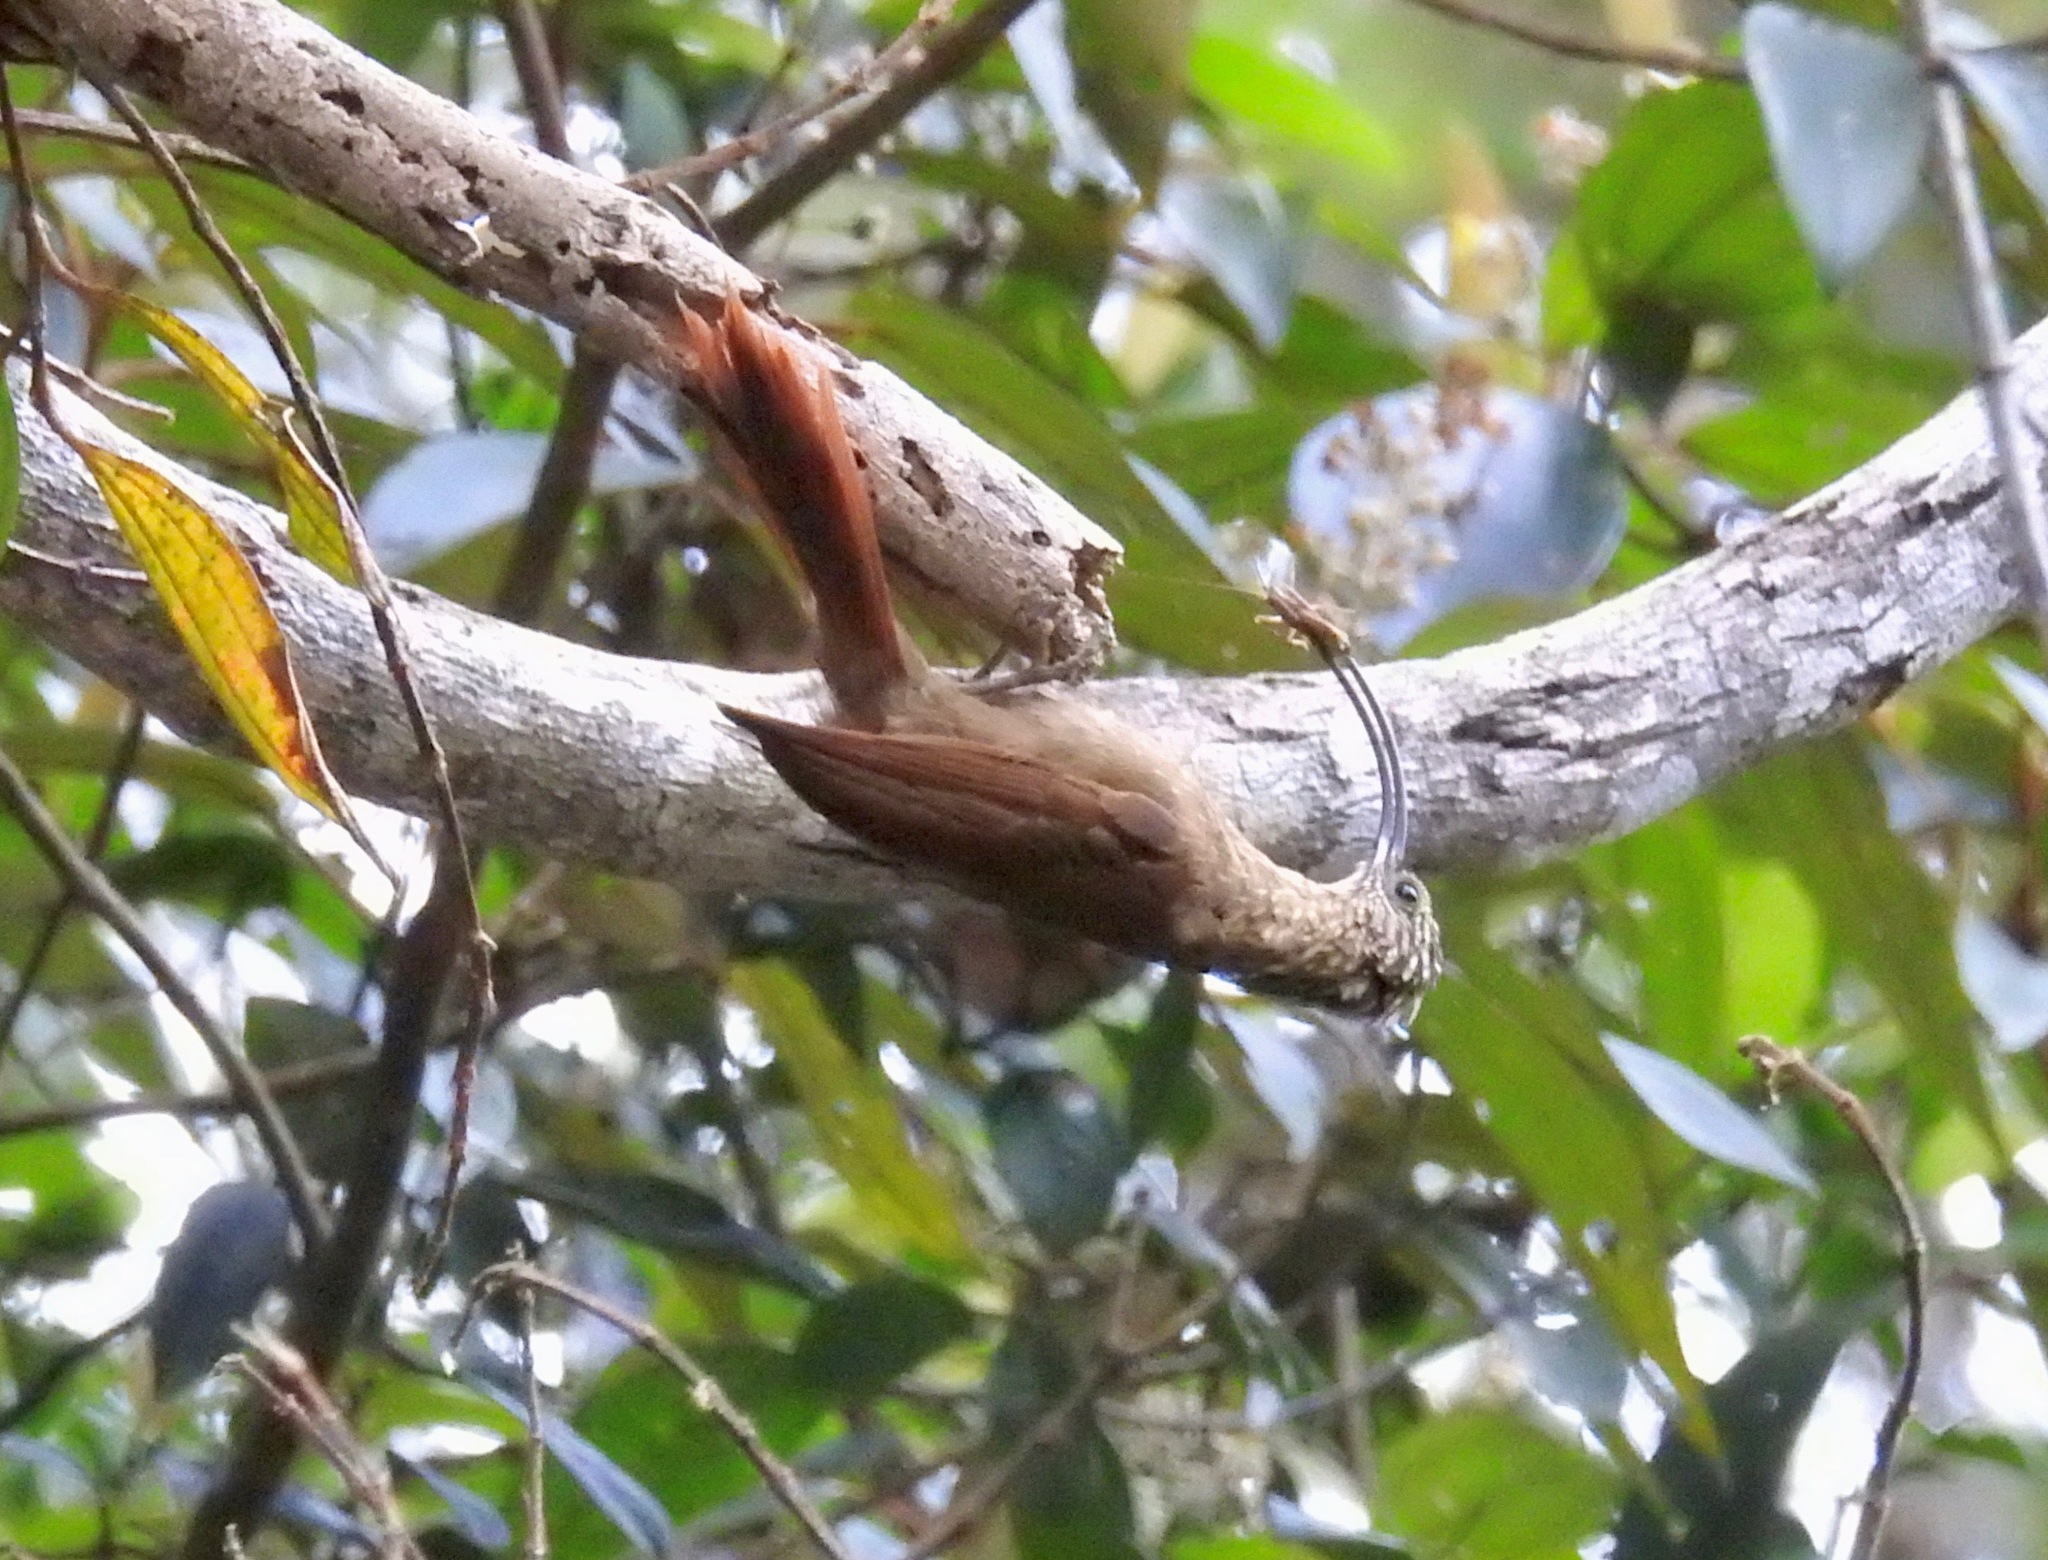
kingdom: Animalia
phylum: Chordata
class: Aves
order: Passeriformes
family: Furnariidae
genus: Campylorhamphus
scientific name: Campylorhamphus falcularius
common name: Black-billed scythebill
